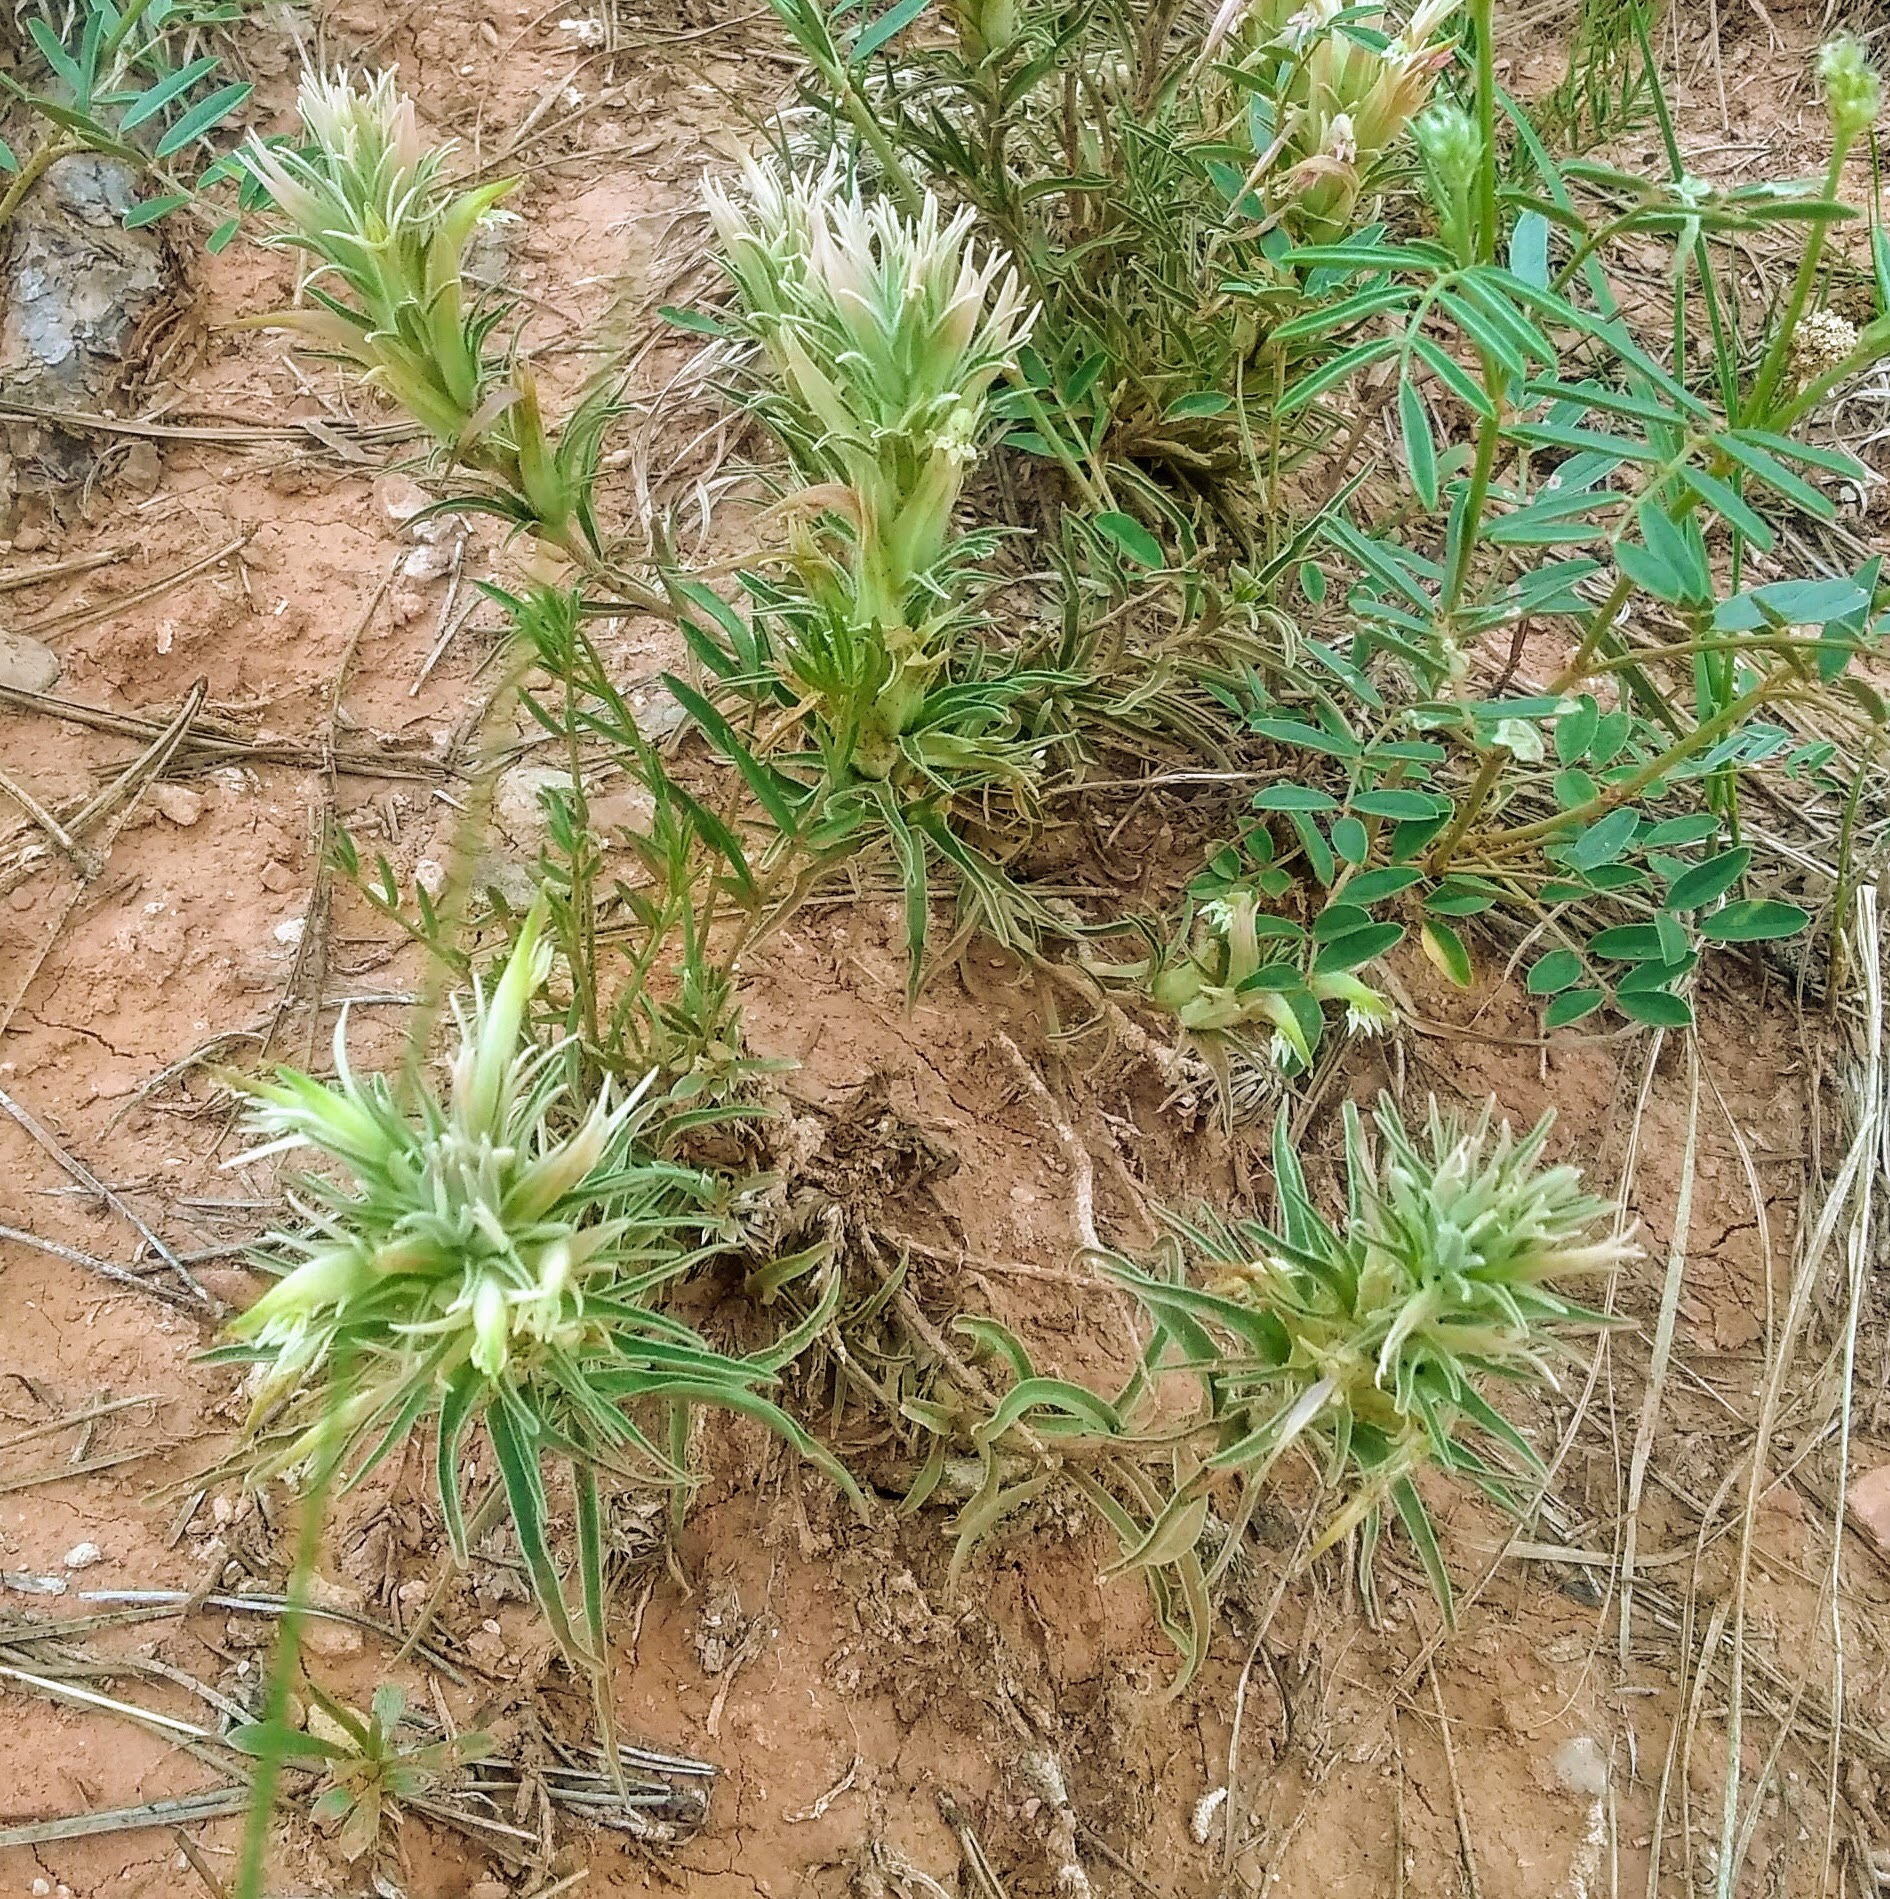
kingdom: Plantae
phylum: Tracheophyta
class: Magnoliopsida
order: Lamiales
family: Orobanchaceae
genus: Castilleja
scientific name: Castilleja sessiliflora
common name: Downy paintbrush
